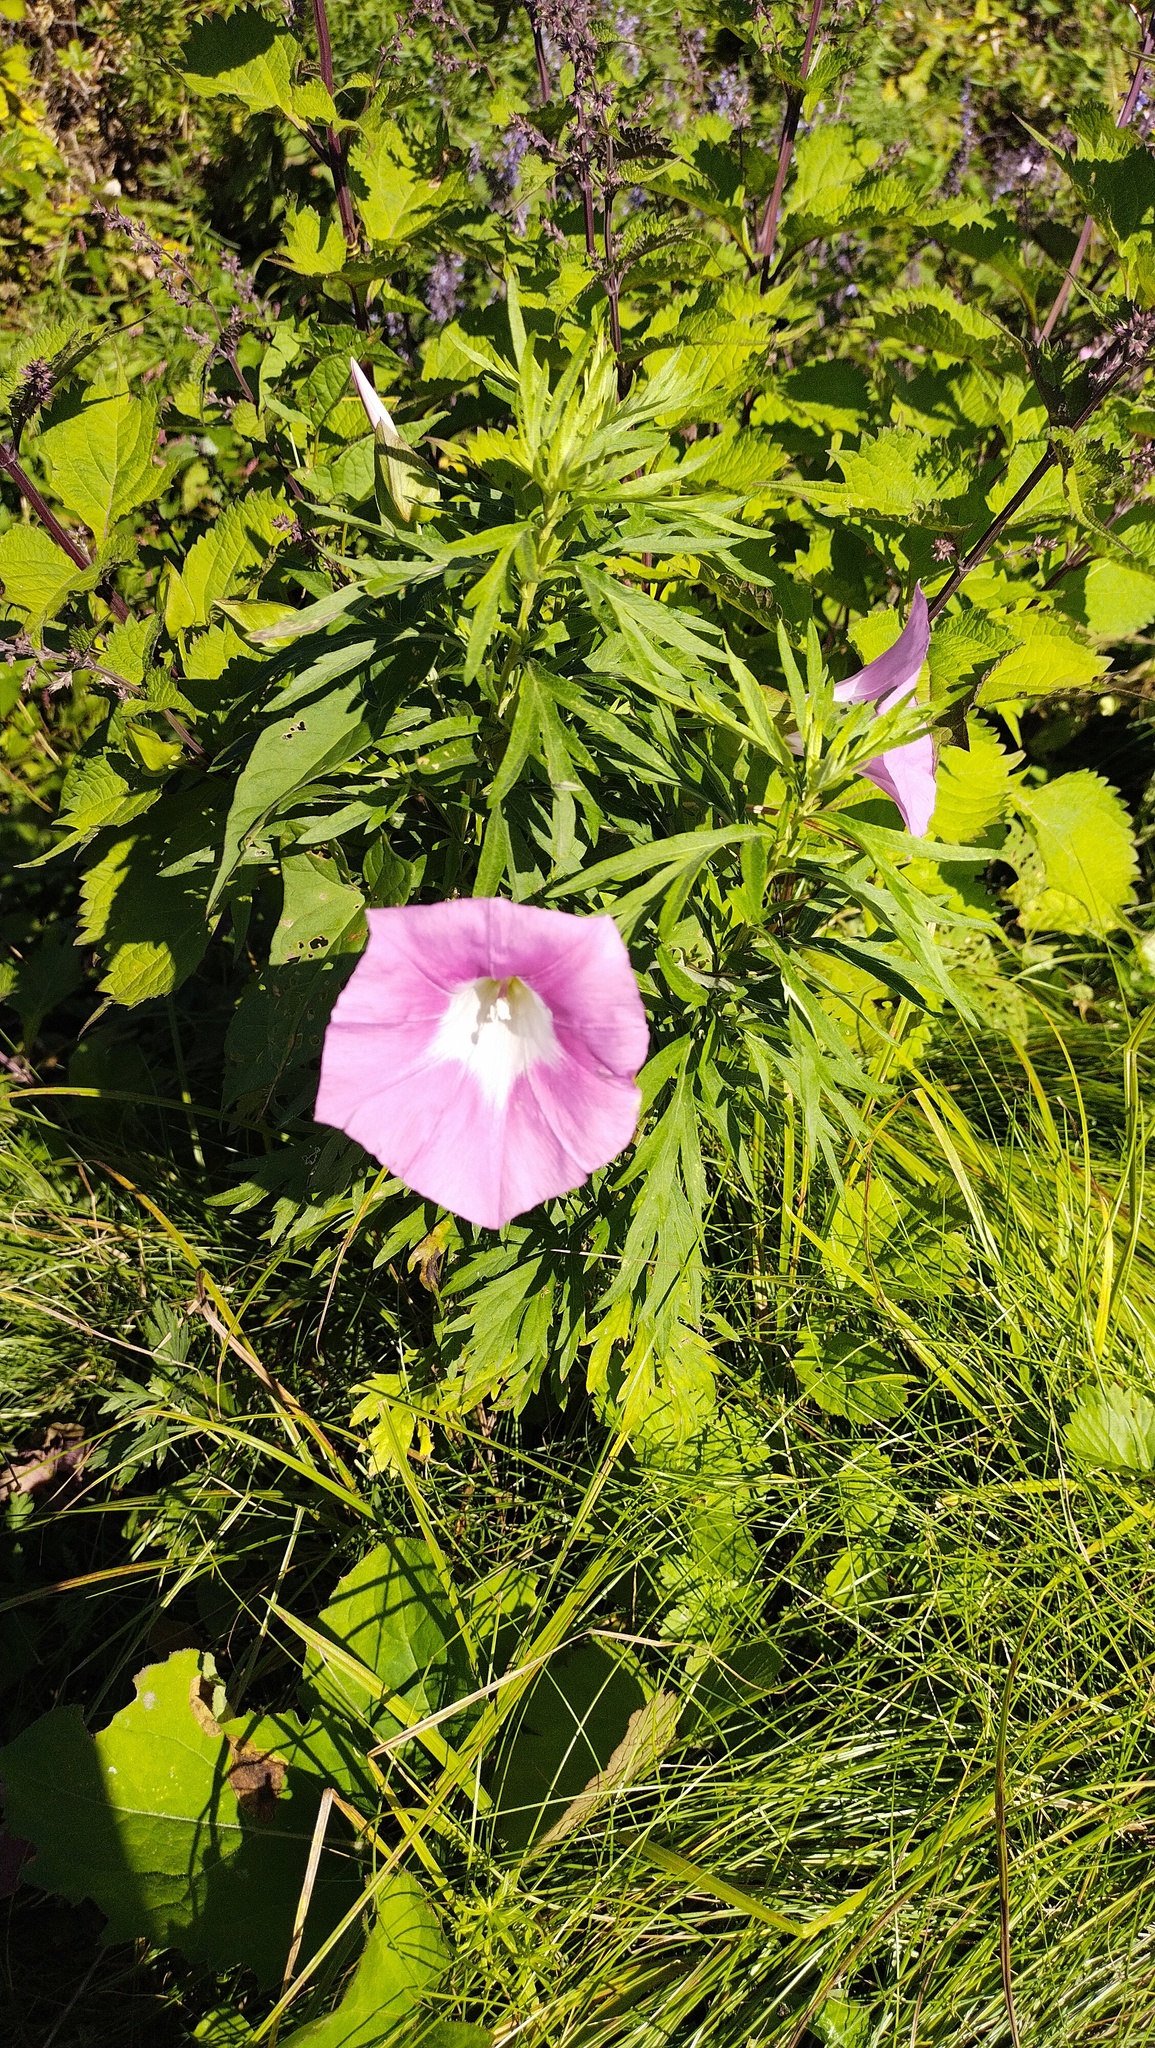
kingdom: Plantae
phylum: Tracheophyta
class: Magnoliopsida
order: Solanales
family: Convolvulaceae
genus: Calystegia
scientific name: Calystegia sepium
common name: Hedge bindweed
